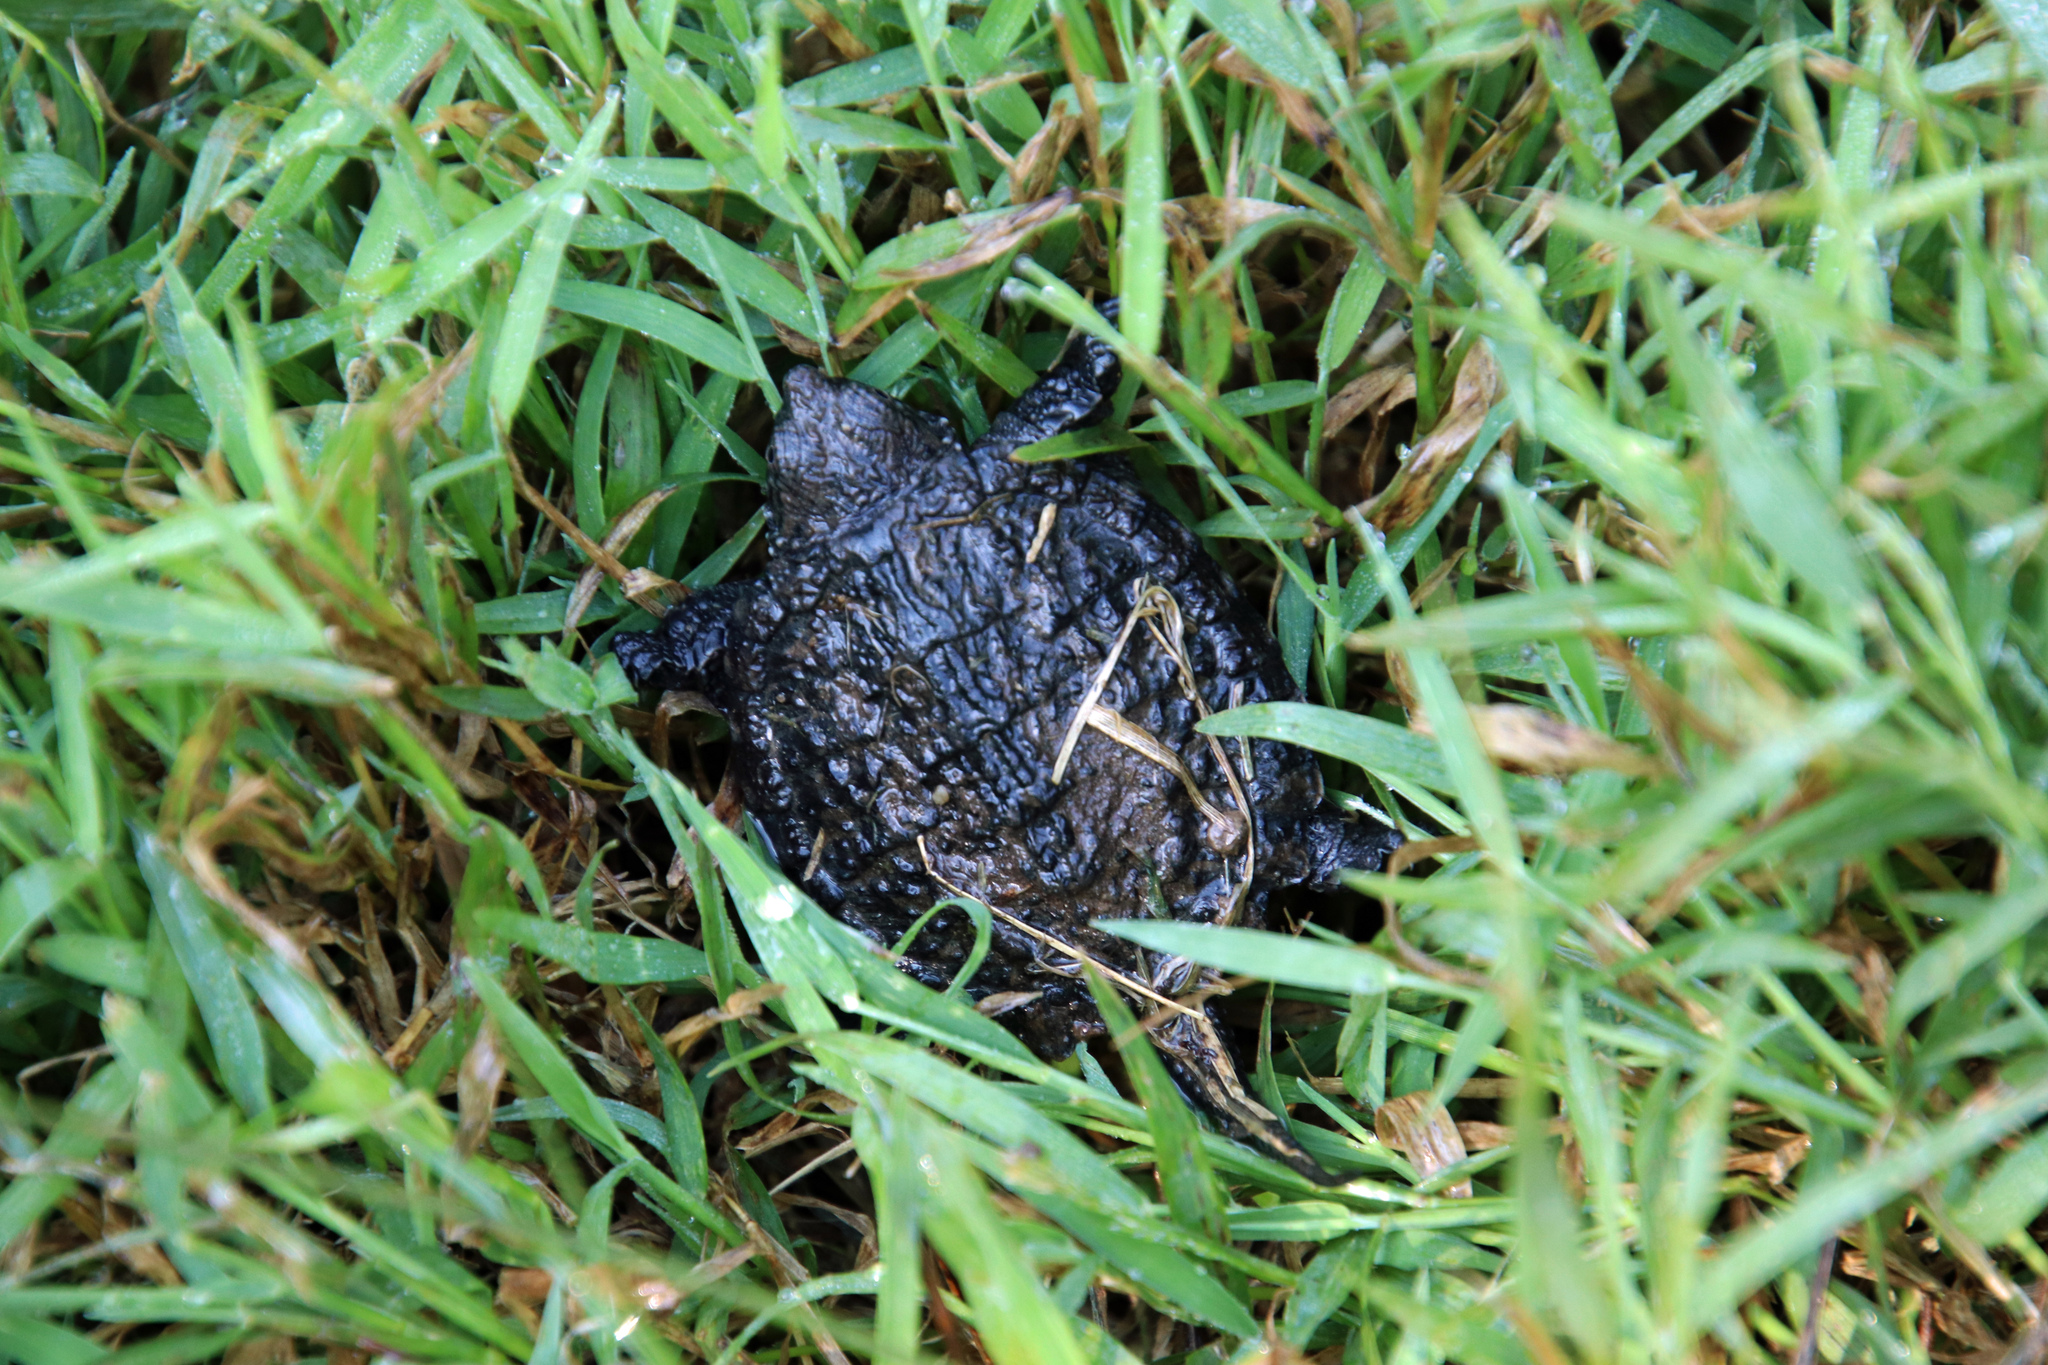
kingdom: Animalia
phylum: Chordata
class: Testudines
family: Chelydridae
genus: Chelydra
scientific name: Chelydra serpentina
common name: Common snapping turtle
